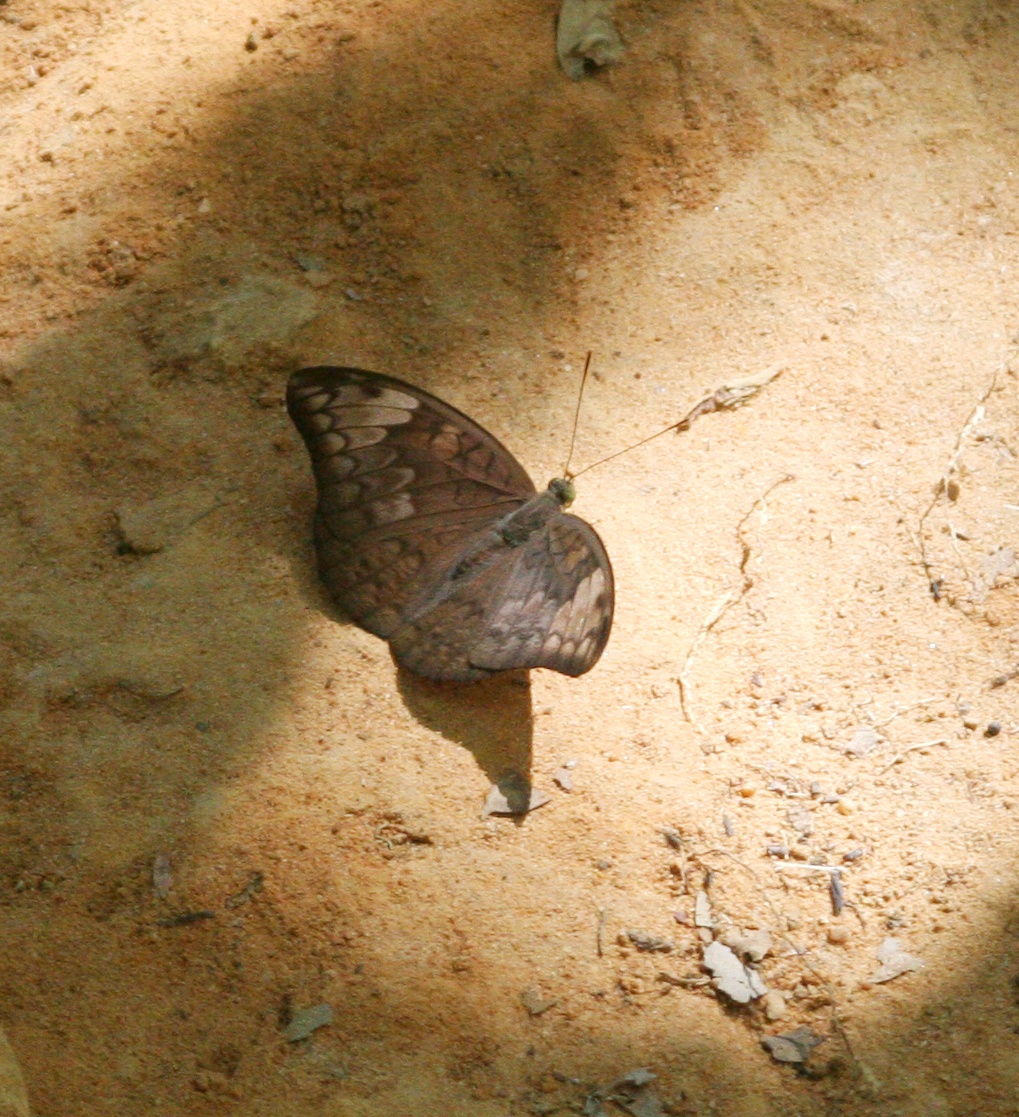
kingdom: Animalia
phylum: Arthropoda
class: Insecta
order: Lepidoptera
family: Nymphalidae
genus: Tanaecia
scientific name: Tanaecia jahnu
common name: Plain earl
